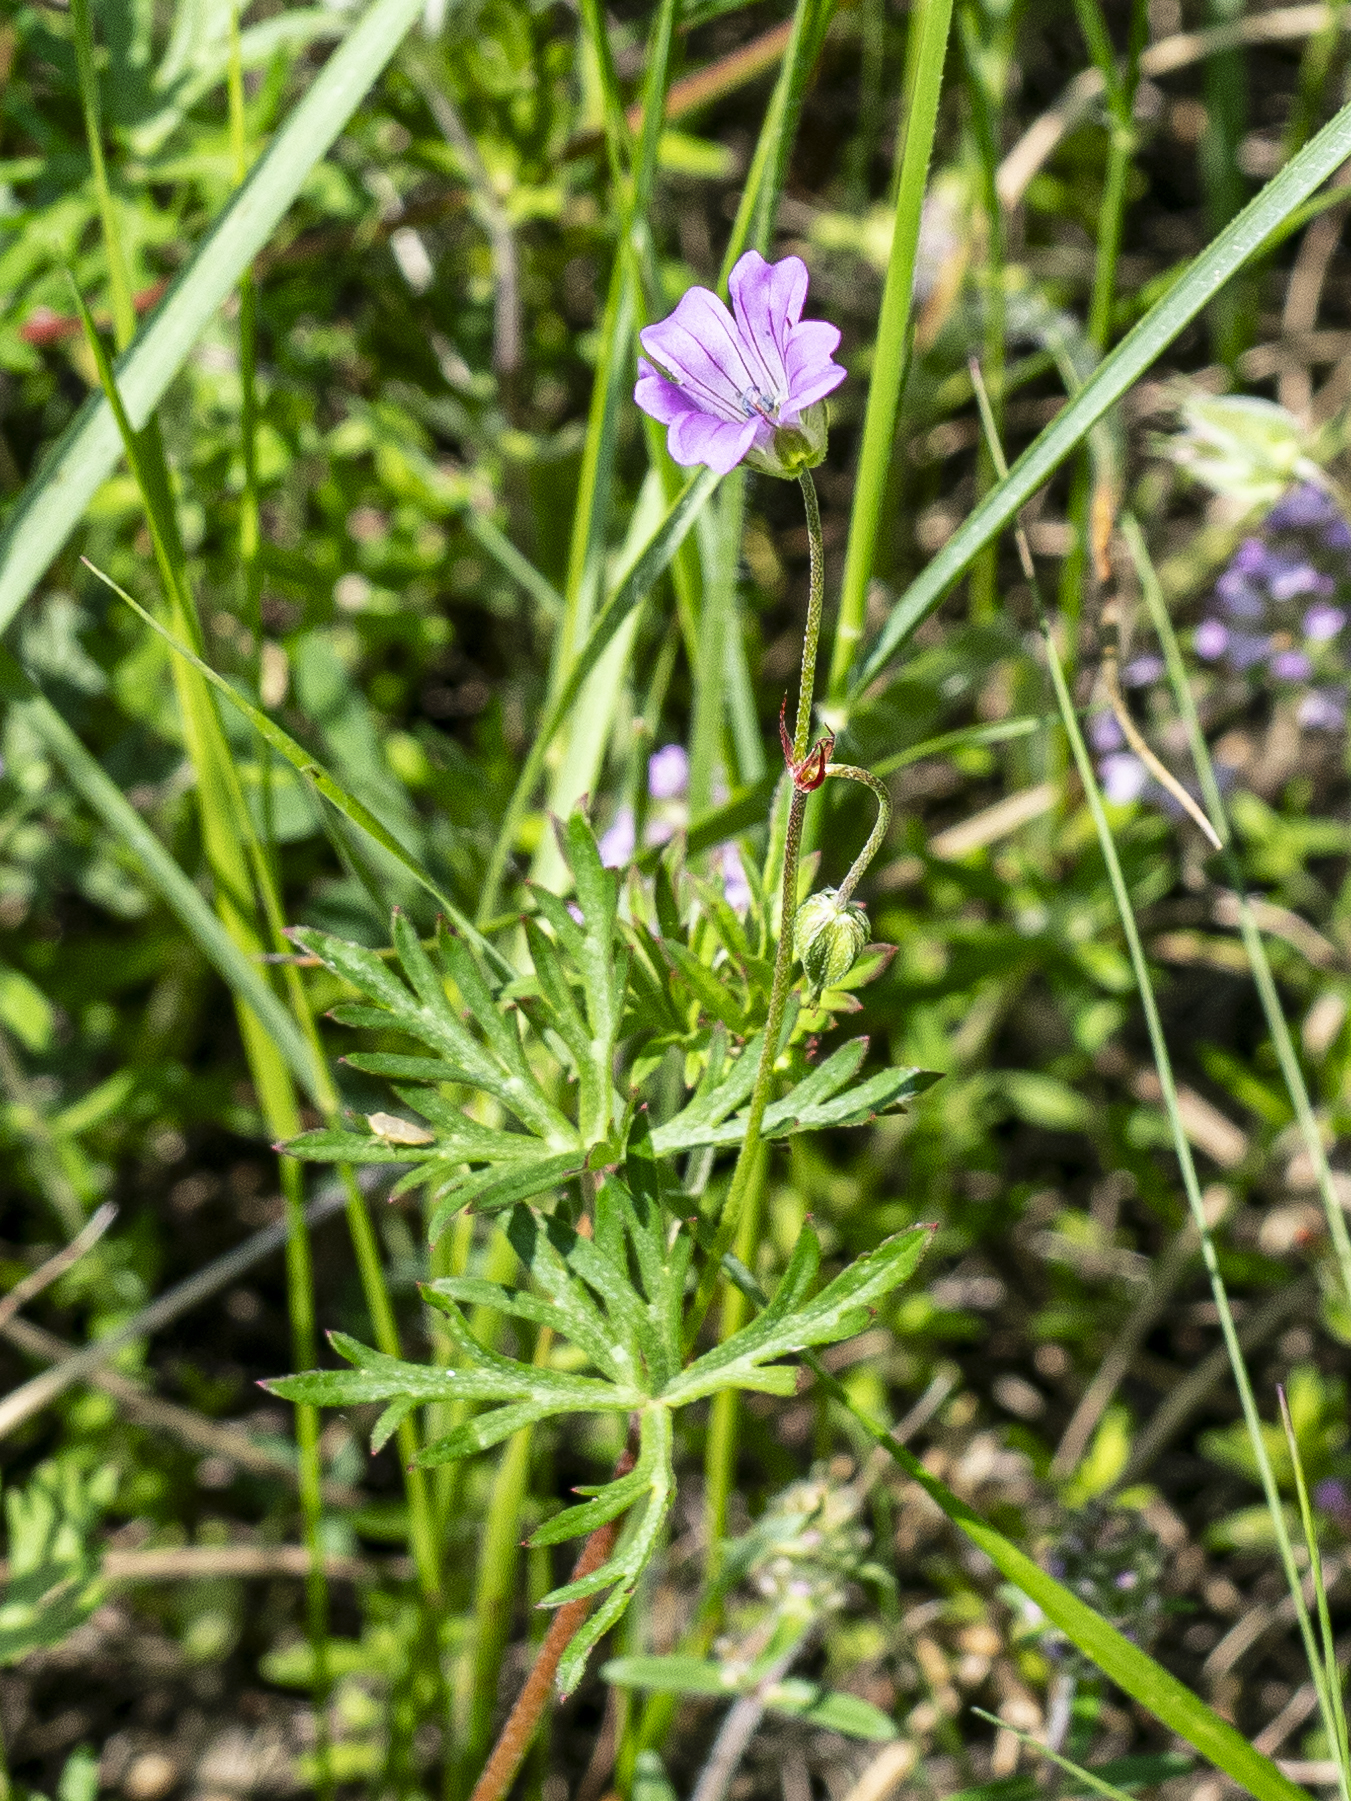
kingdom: Plantae
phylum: Tracheophyta
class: Magnoliopsida
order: Geraniales
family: Geraniaceae
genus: Geranium
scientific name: Geranium columbinum
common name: Long-stalked crane's-bill
